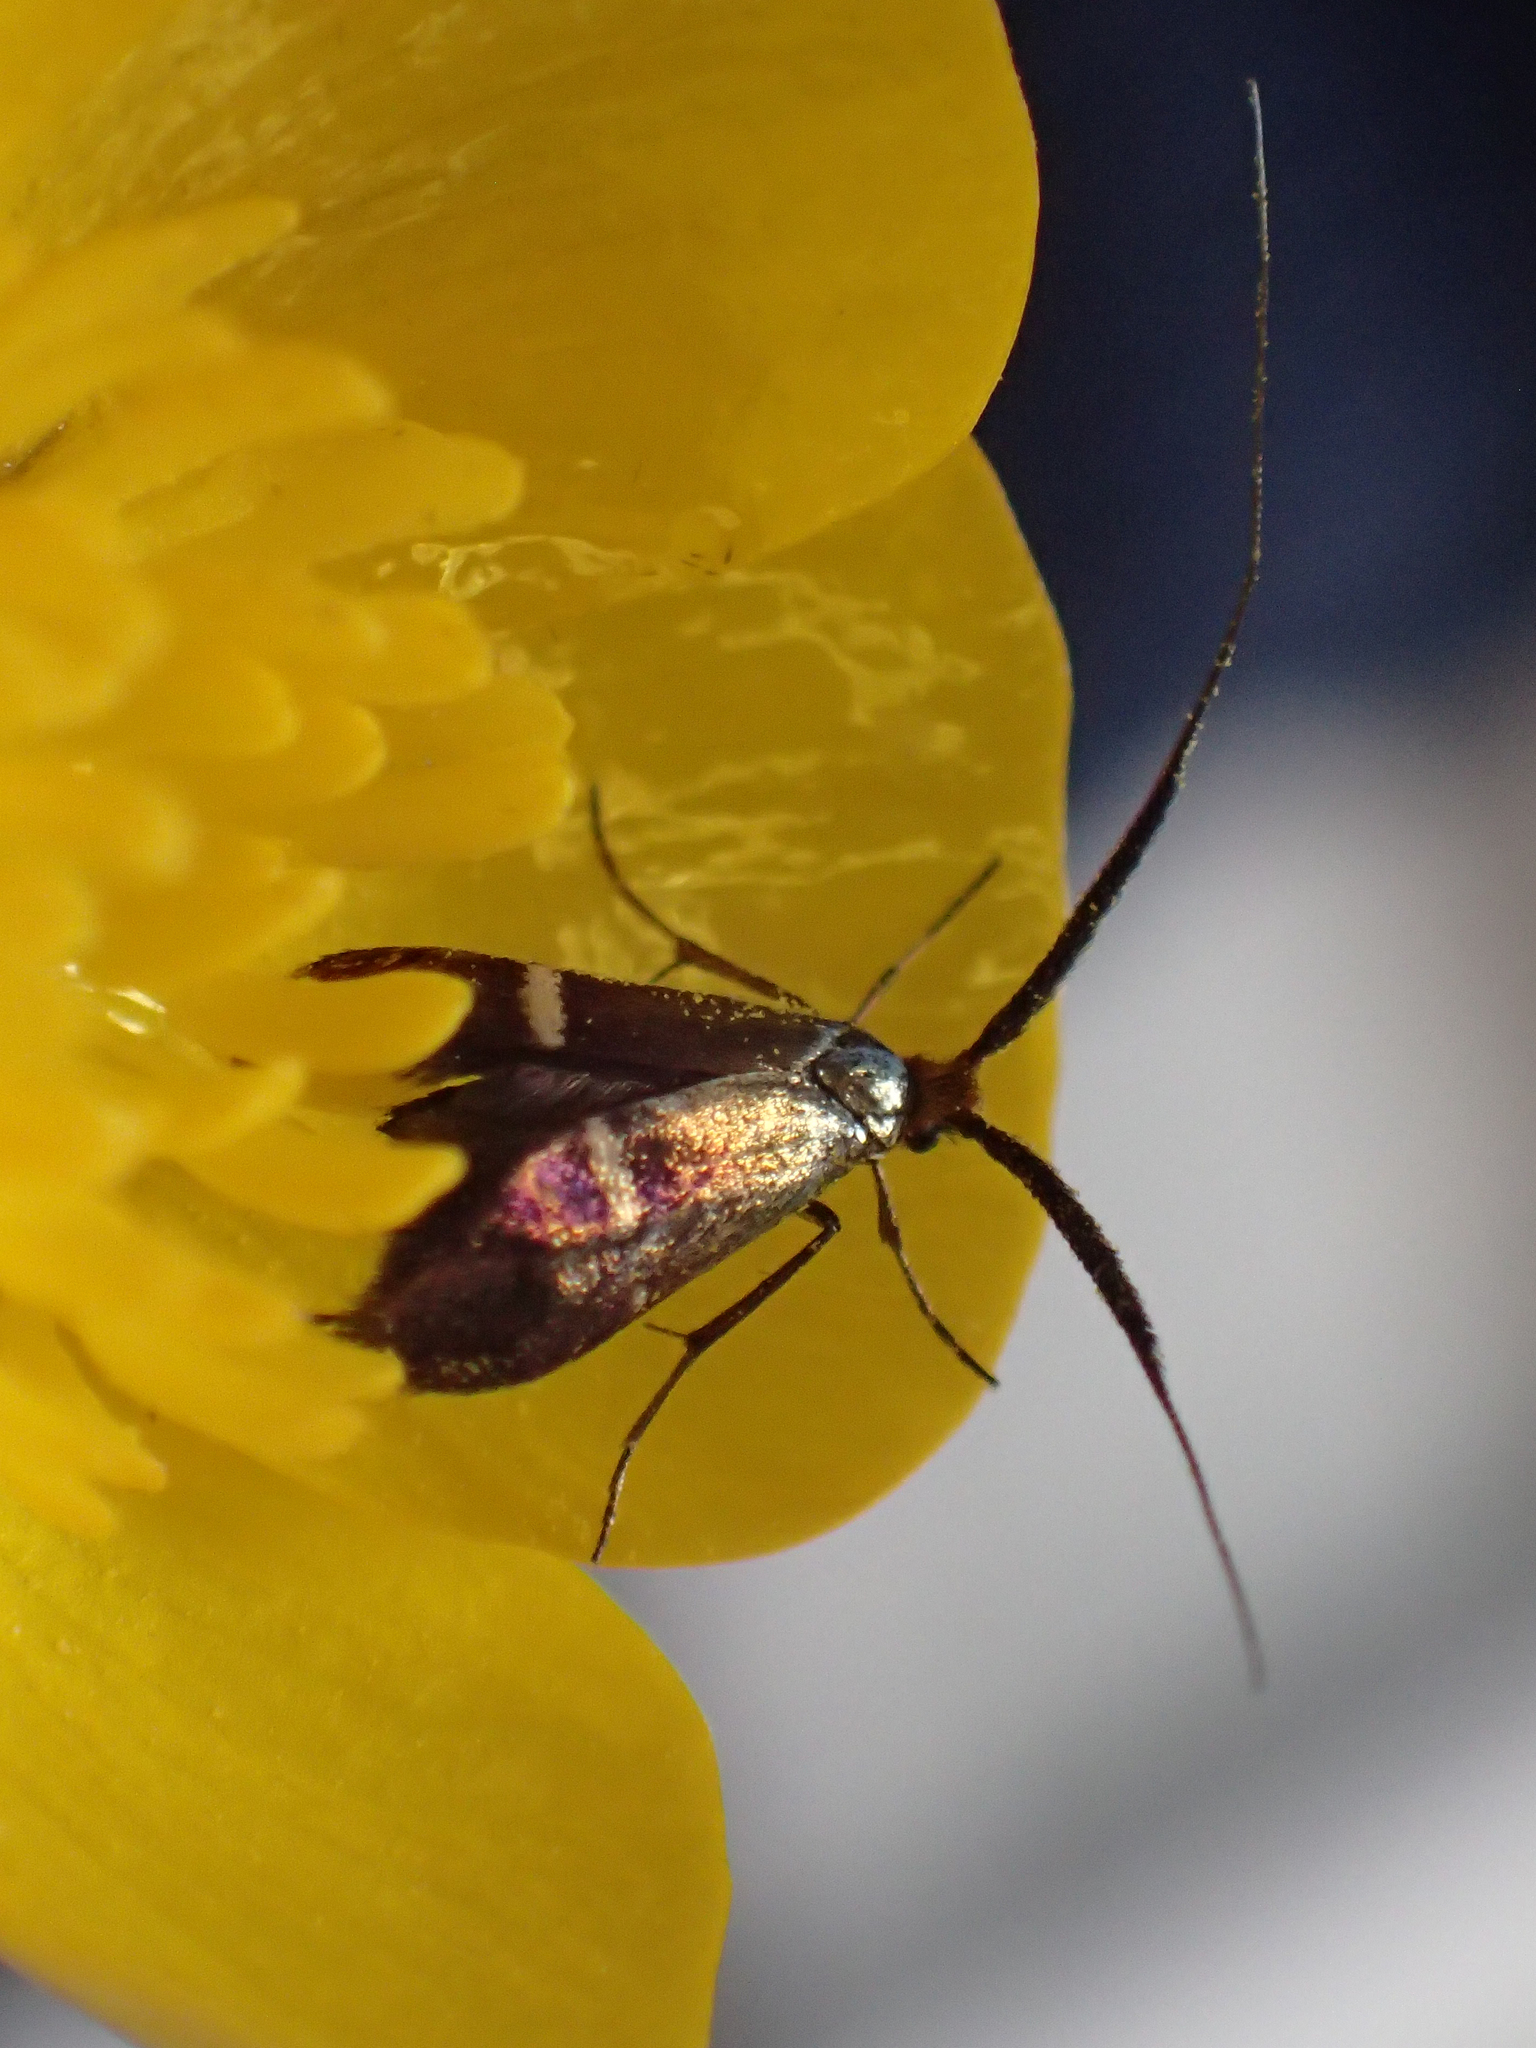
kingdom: Animalia
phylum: Arthropoda
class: Insecta
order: Lepidoptera
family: Adelidae
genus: Adela
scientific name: Adela australis
